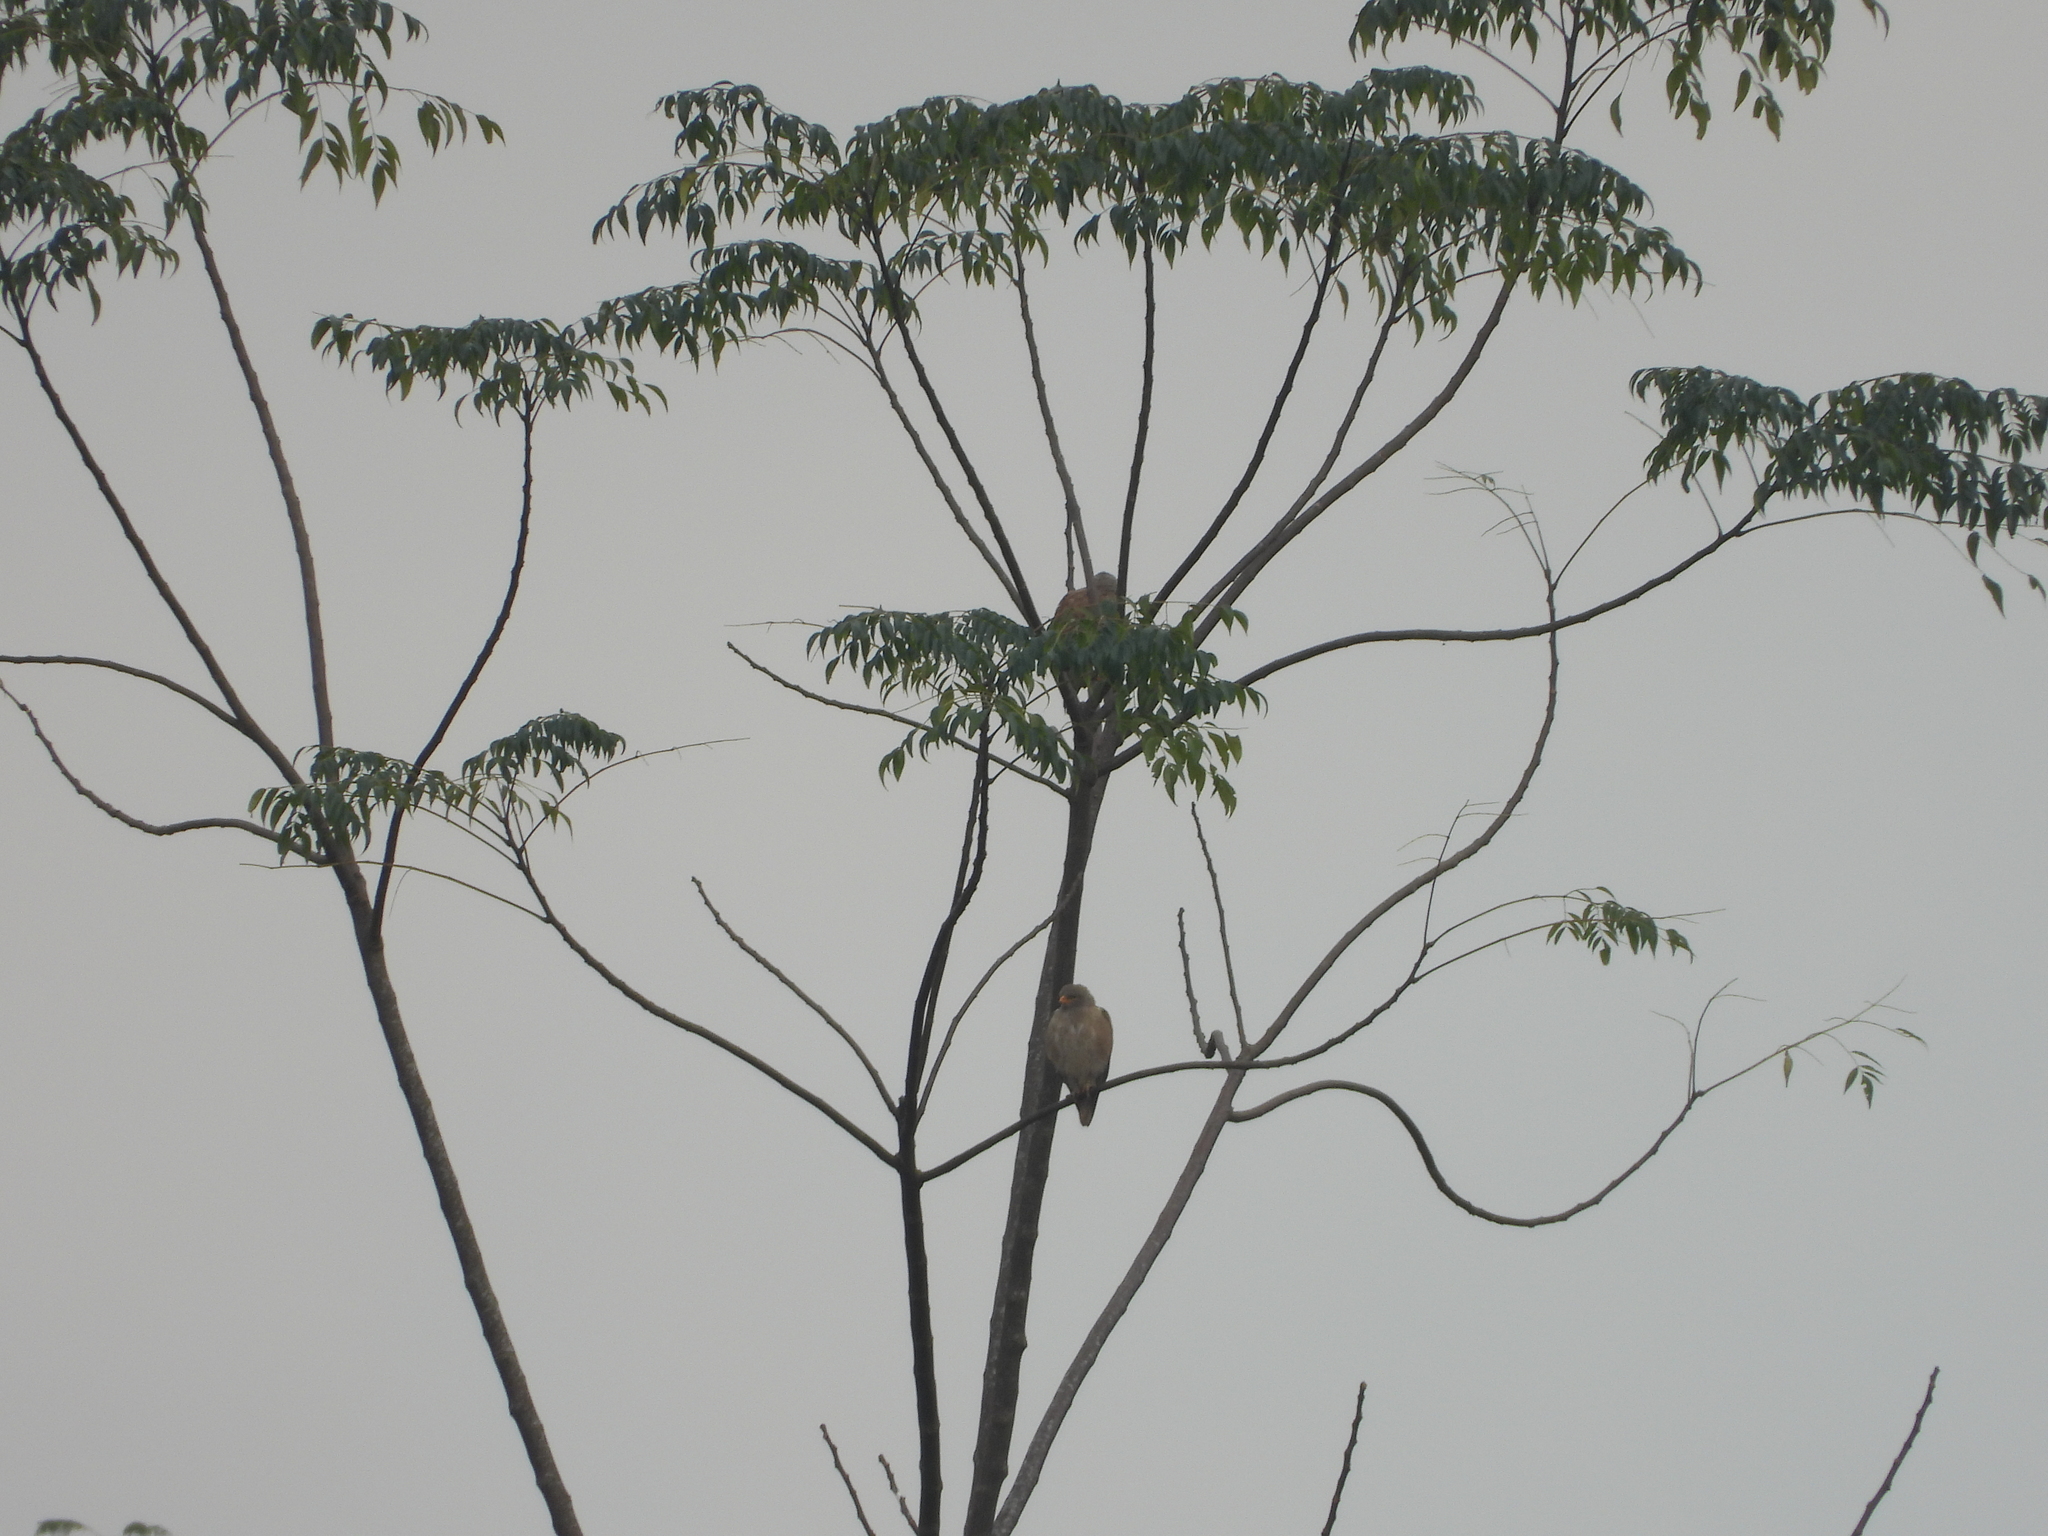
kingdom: Animalia
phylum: Chordata
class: Aves
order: Accipitriformes
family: Accipitridae
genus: Butastur
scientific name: Butastur liventer
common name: Rufous-winged buzzard
